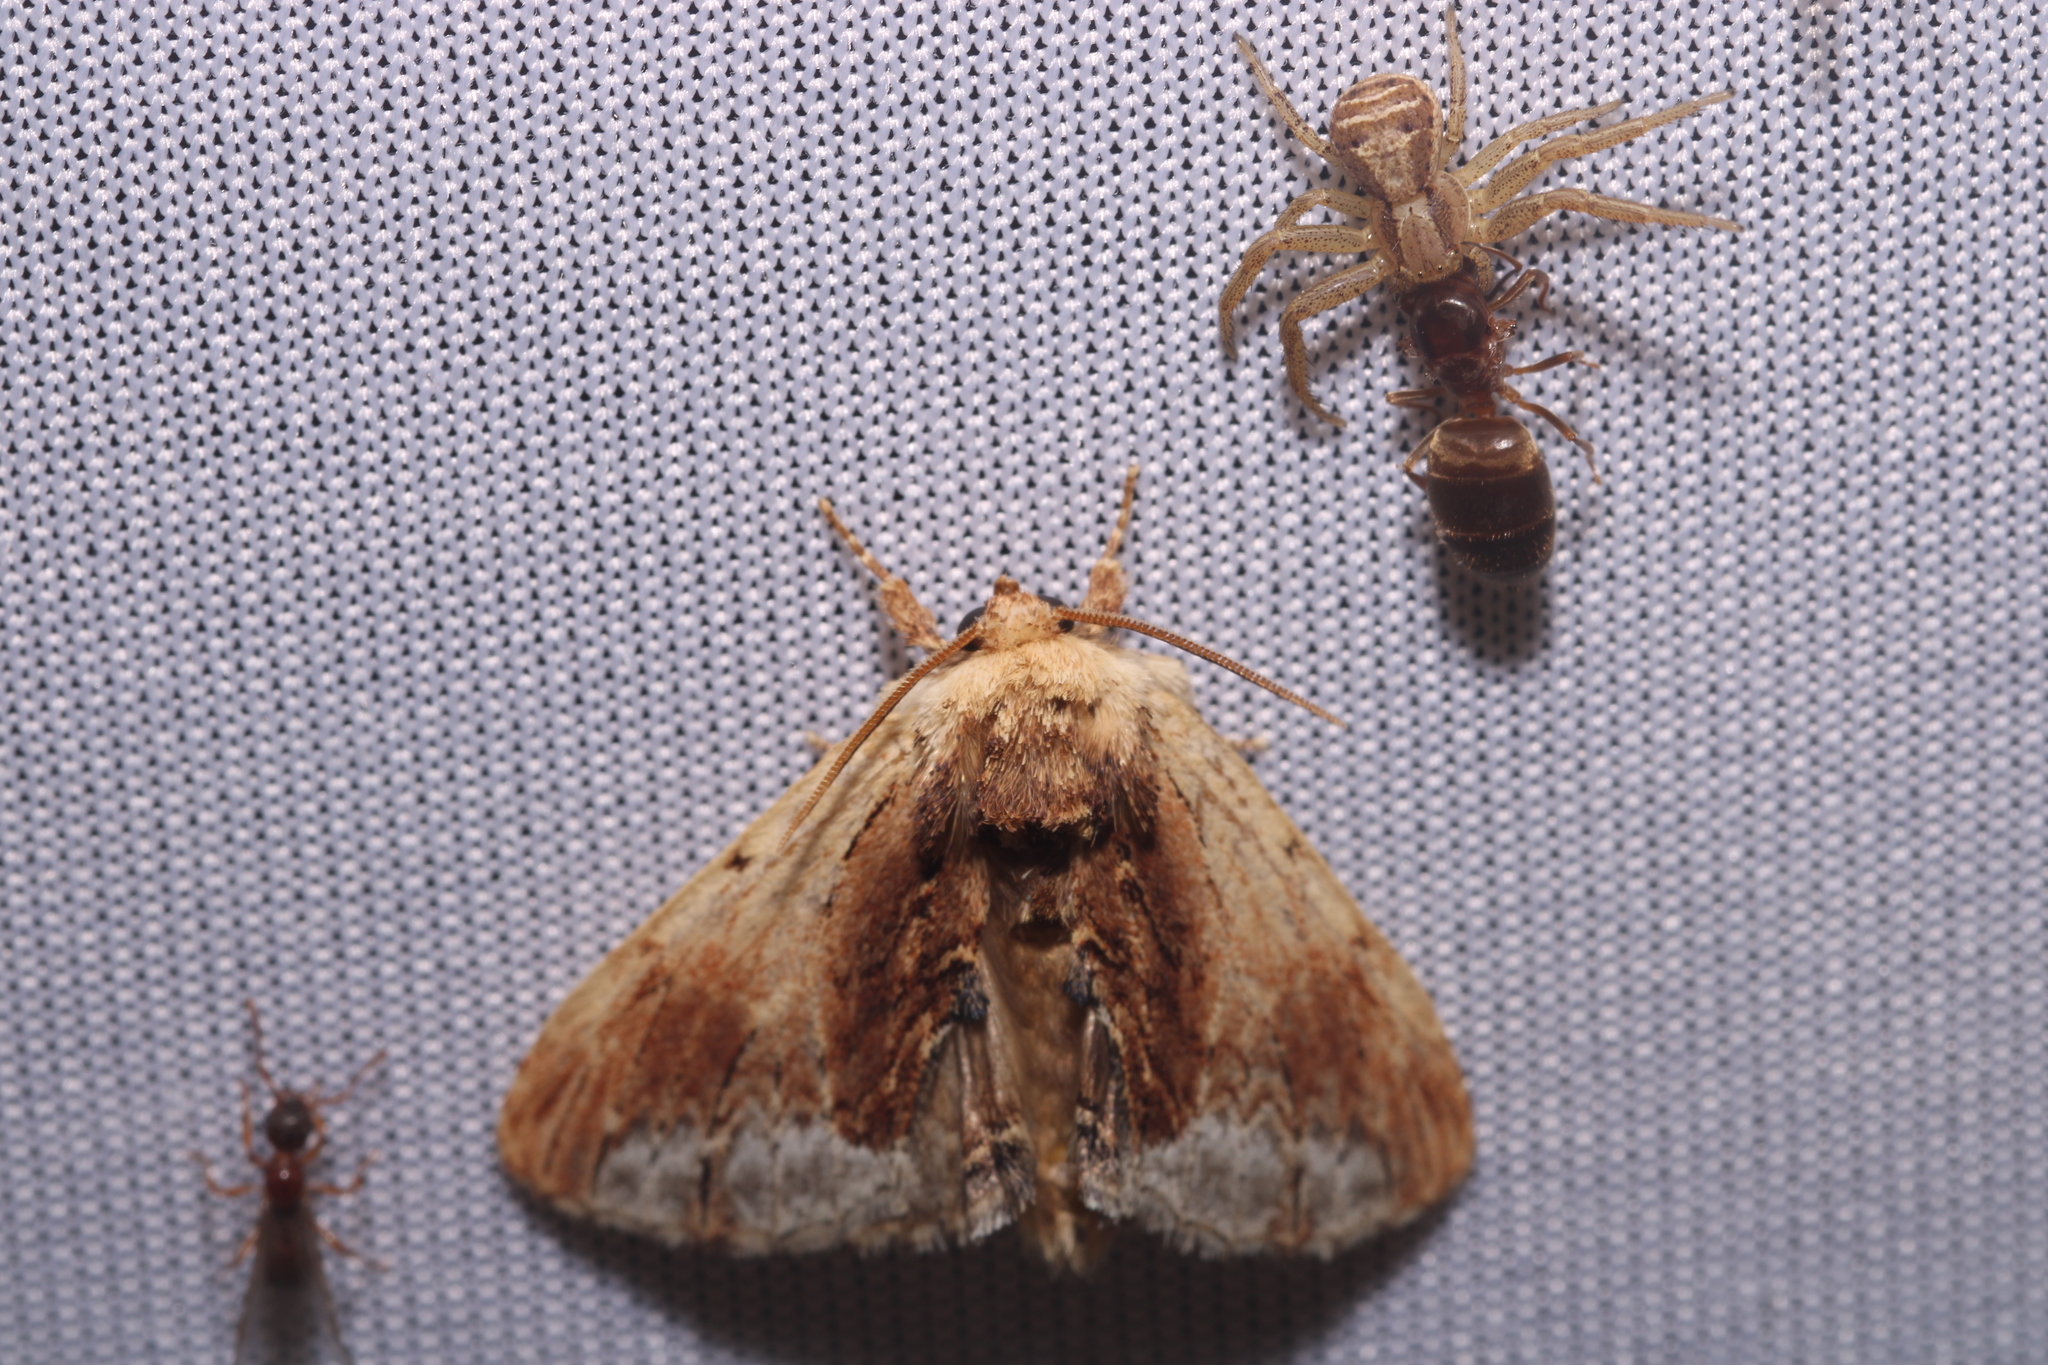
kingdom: Animalia
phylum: Arthropoda
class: Insecta
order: Lepidoptera
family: Notodontidae
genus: Ptilodon
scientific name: Ptilodon cucullina
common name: Maple prominent
